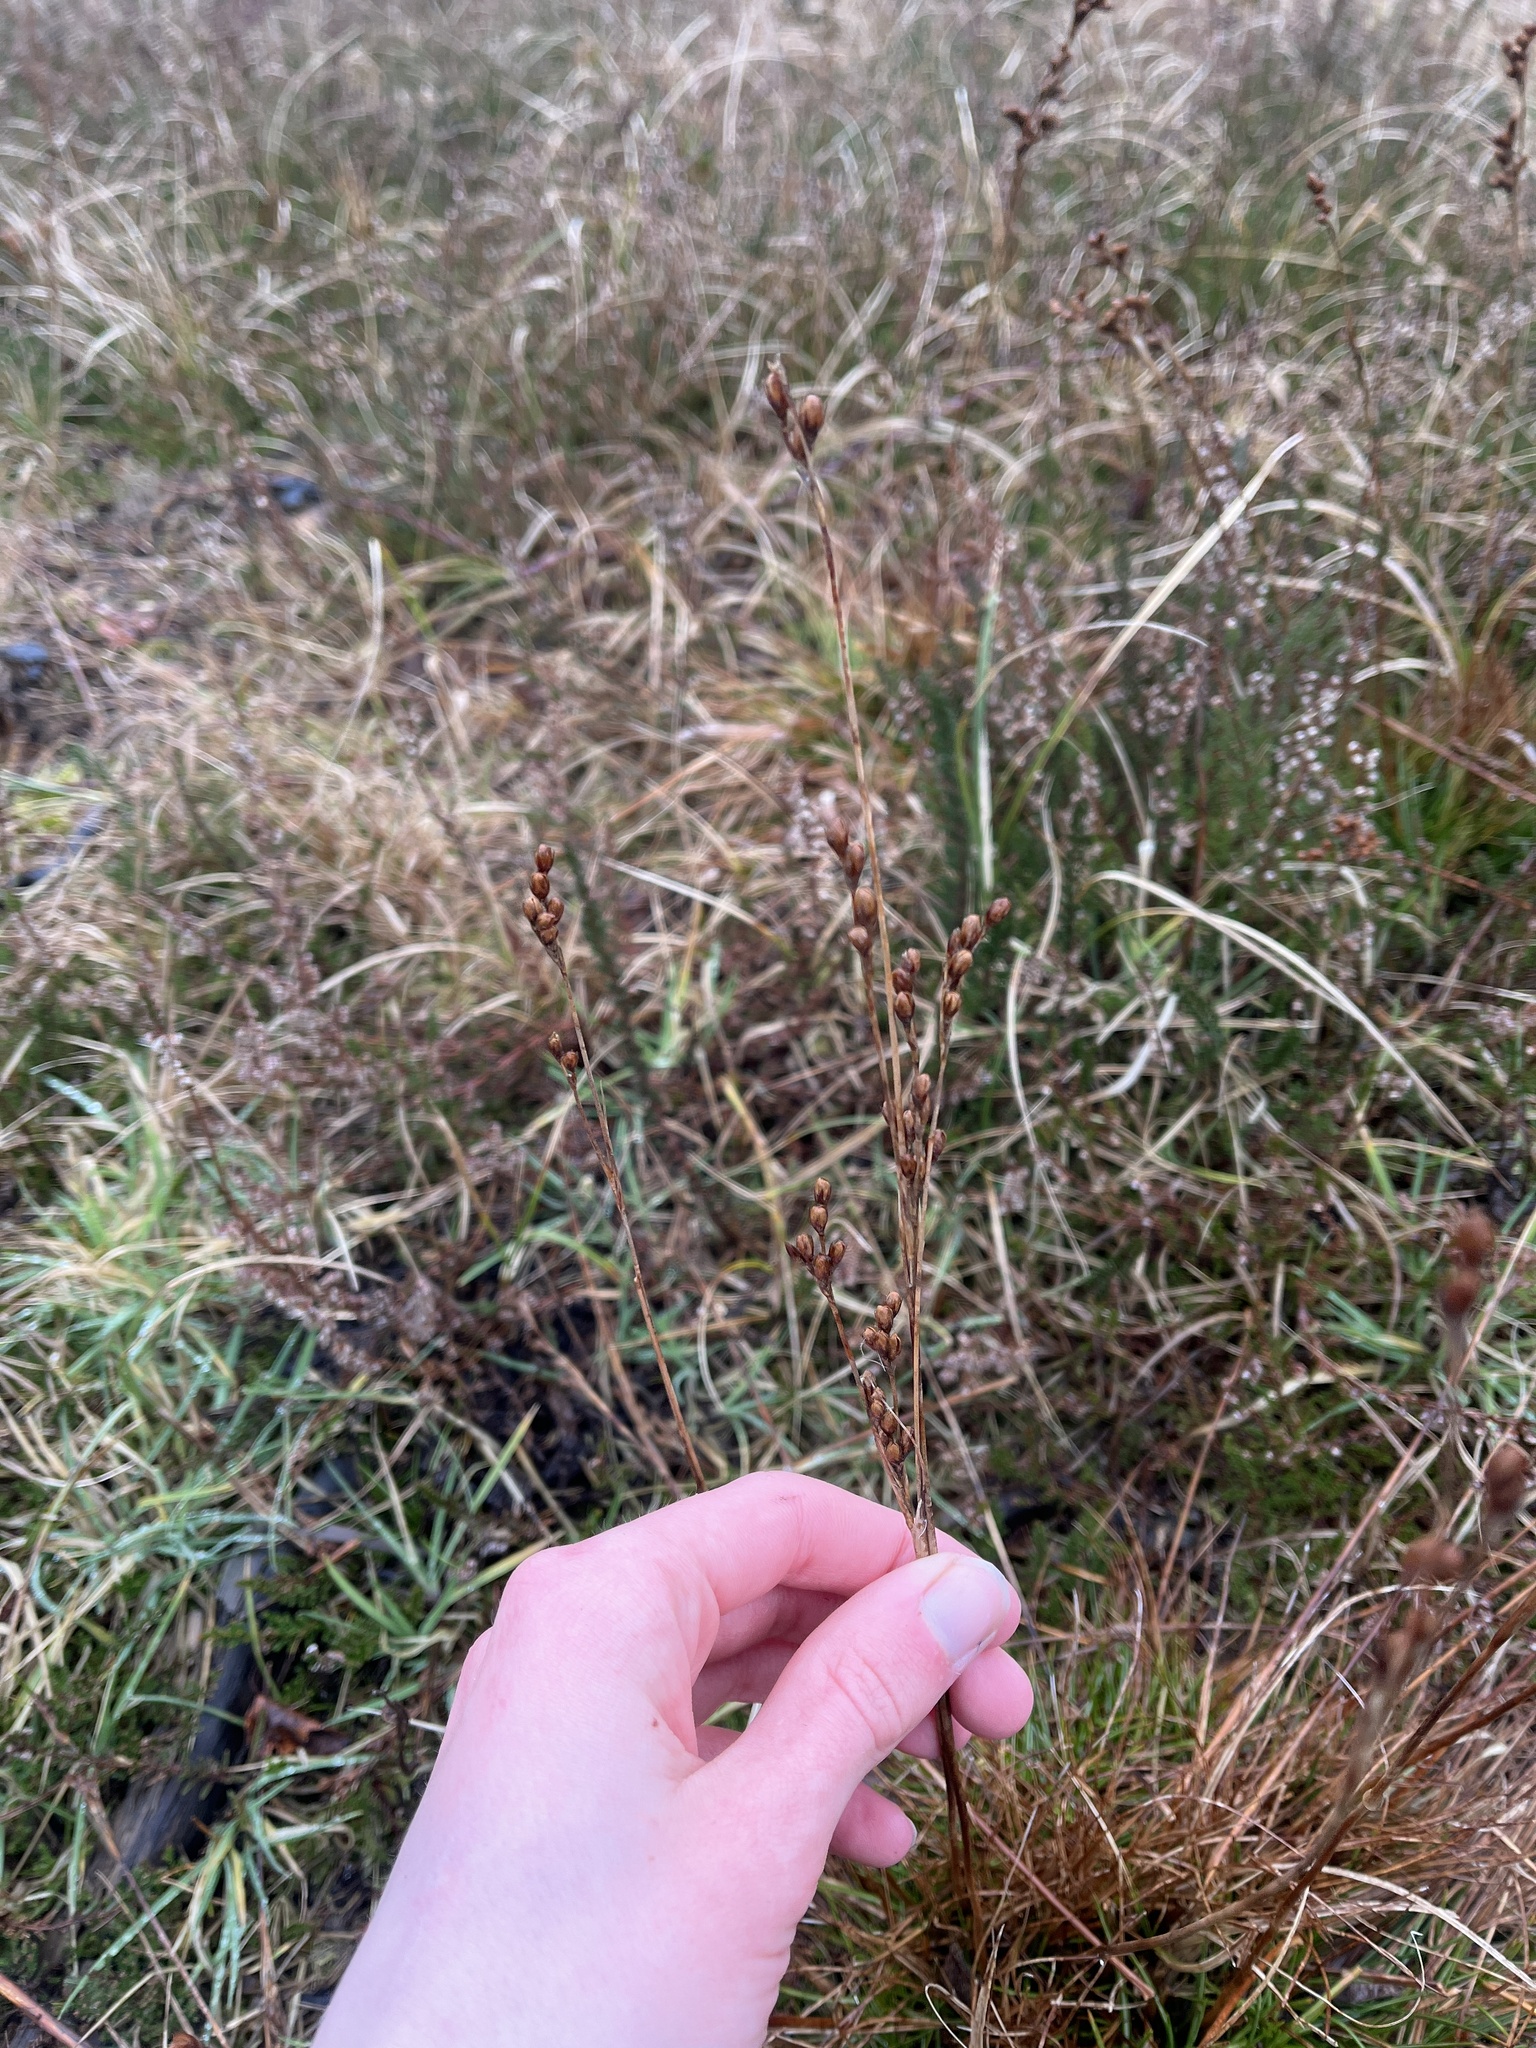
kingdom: Plantae
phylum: Tracheophyta
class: Liliopsida
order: Poales
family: Juncaceae
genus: Juncus
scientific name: Juncus squarrosus
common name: Heath rush
